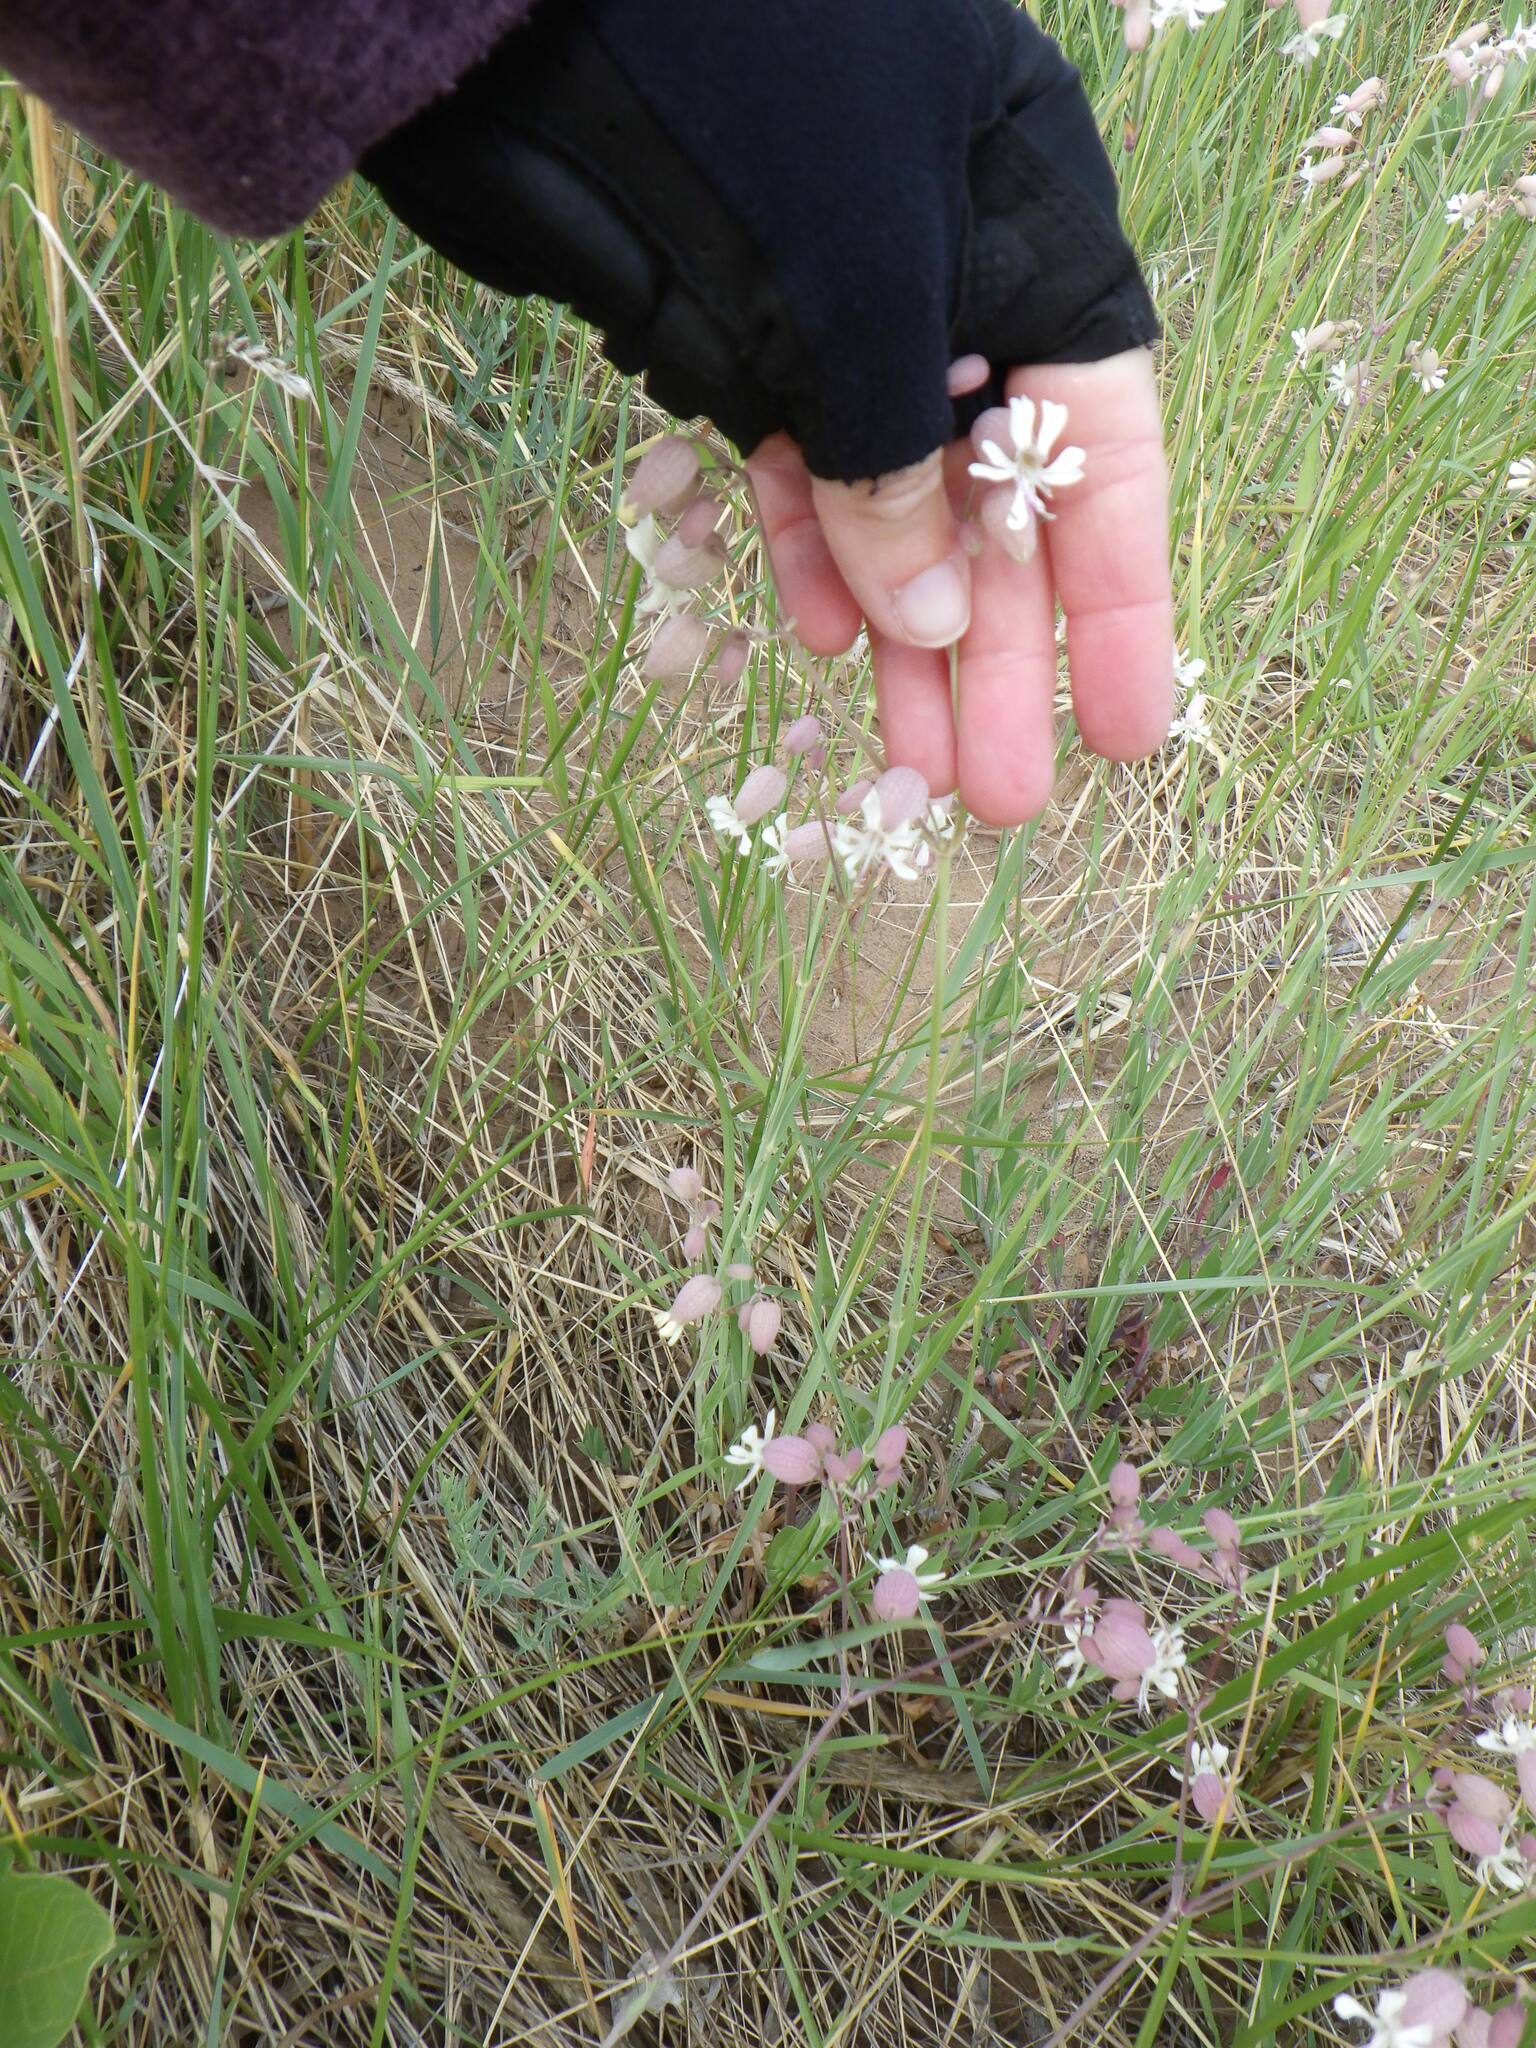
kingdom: Plantae
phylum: Tracheophyta
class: Magnoliopsida
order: Caryophyllales
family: Caryophyllaceae
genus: Silene
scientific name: Silene vulgaris
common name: Bladder campion
